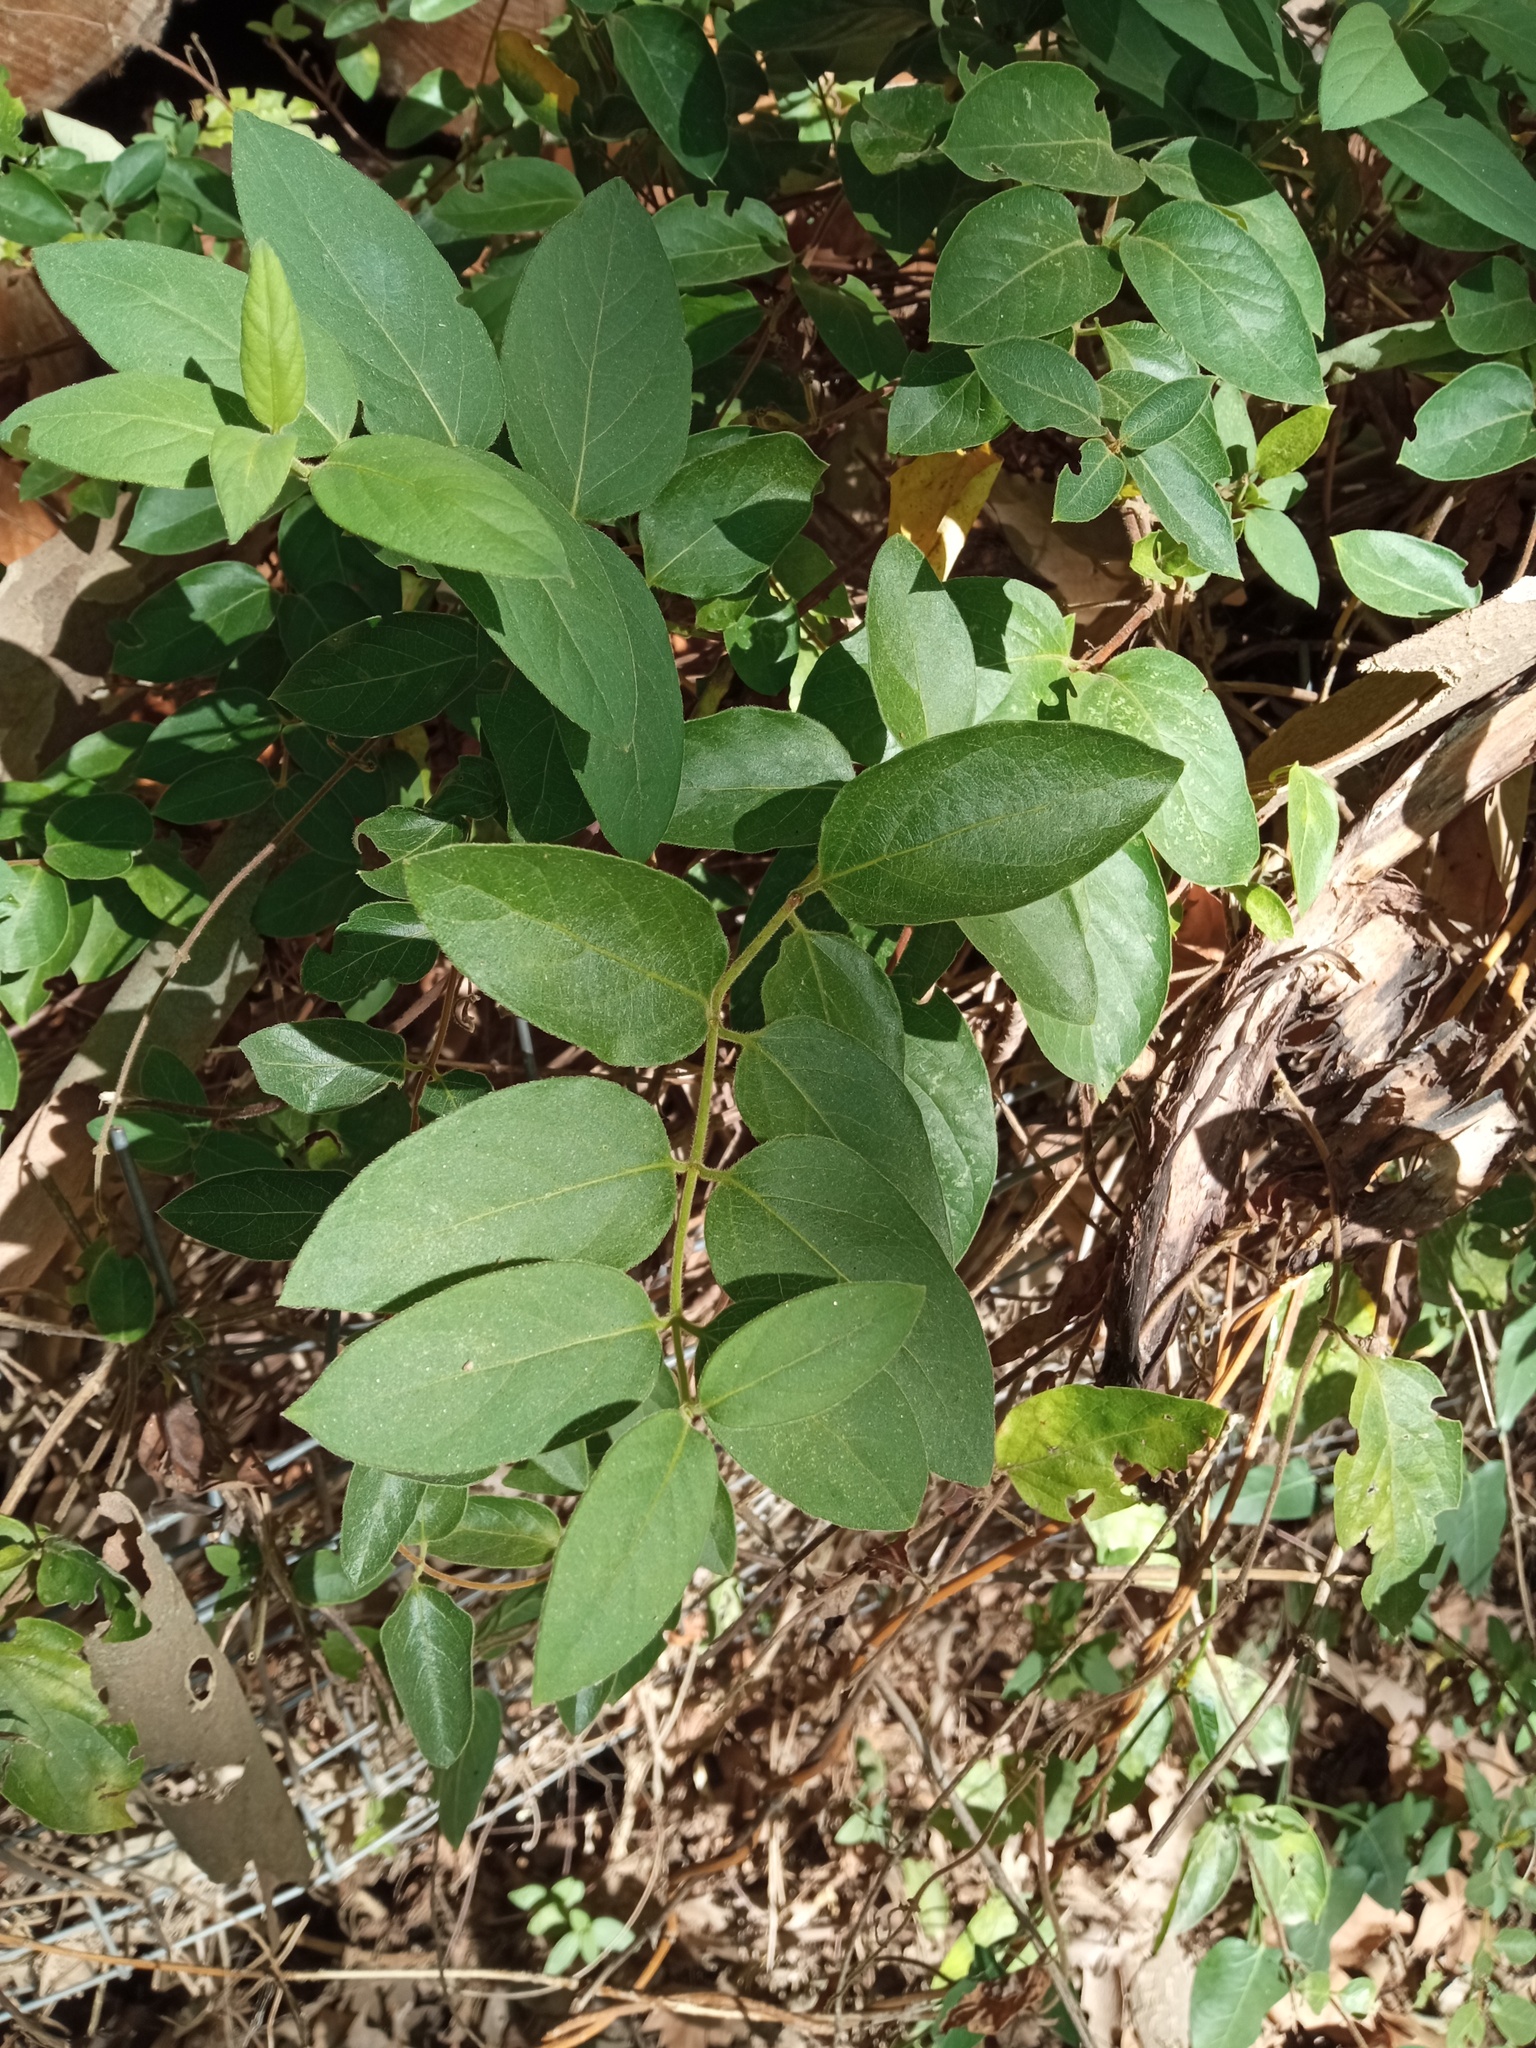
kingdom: Plantae
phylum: Tracheophyta
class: Magnoliopsida
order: Dipsacales
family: Caprifoliaceae
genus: Lonicera
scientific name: Lonicera japonica
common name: Japanese honeysuckle
